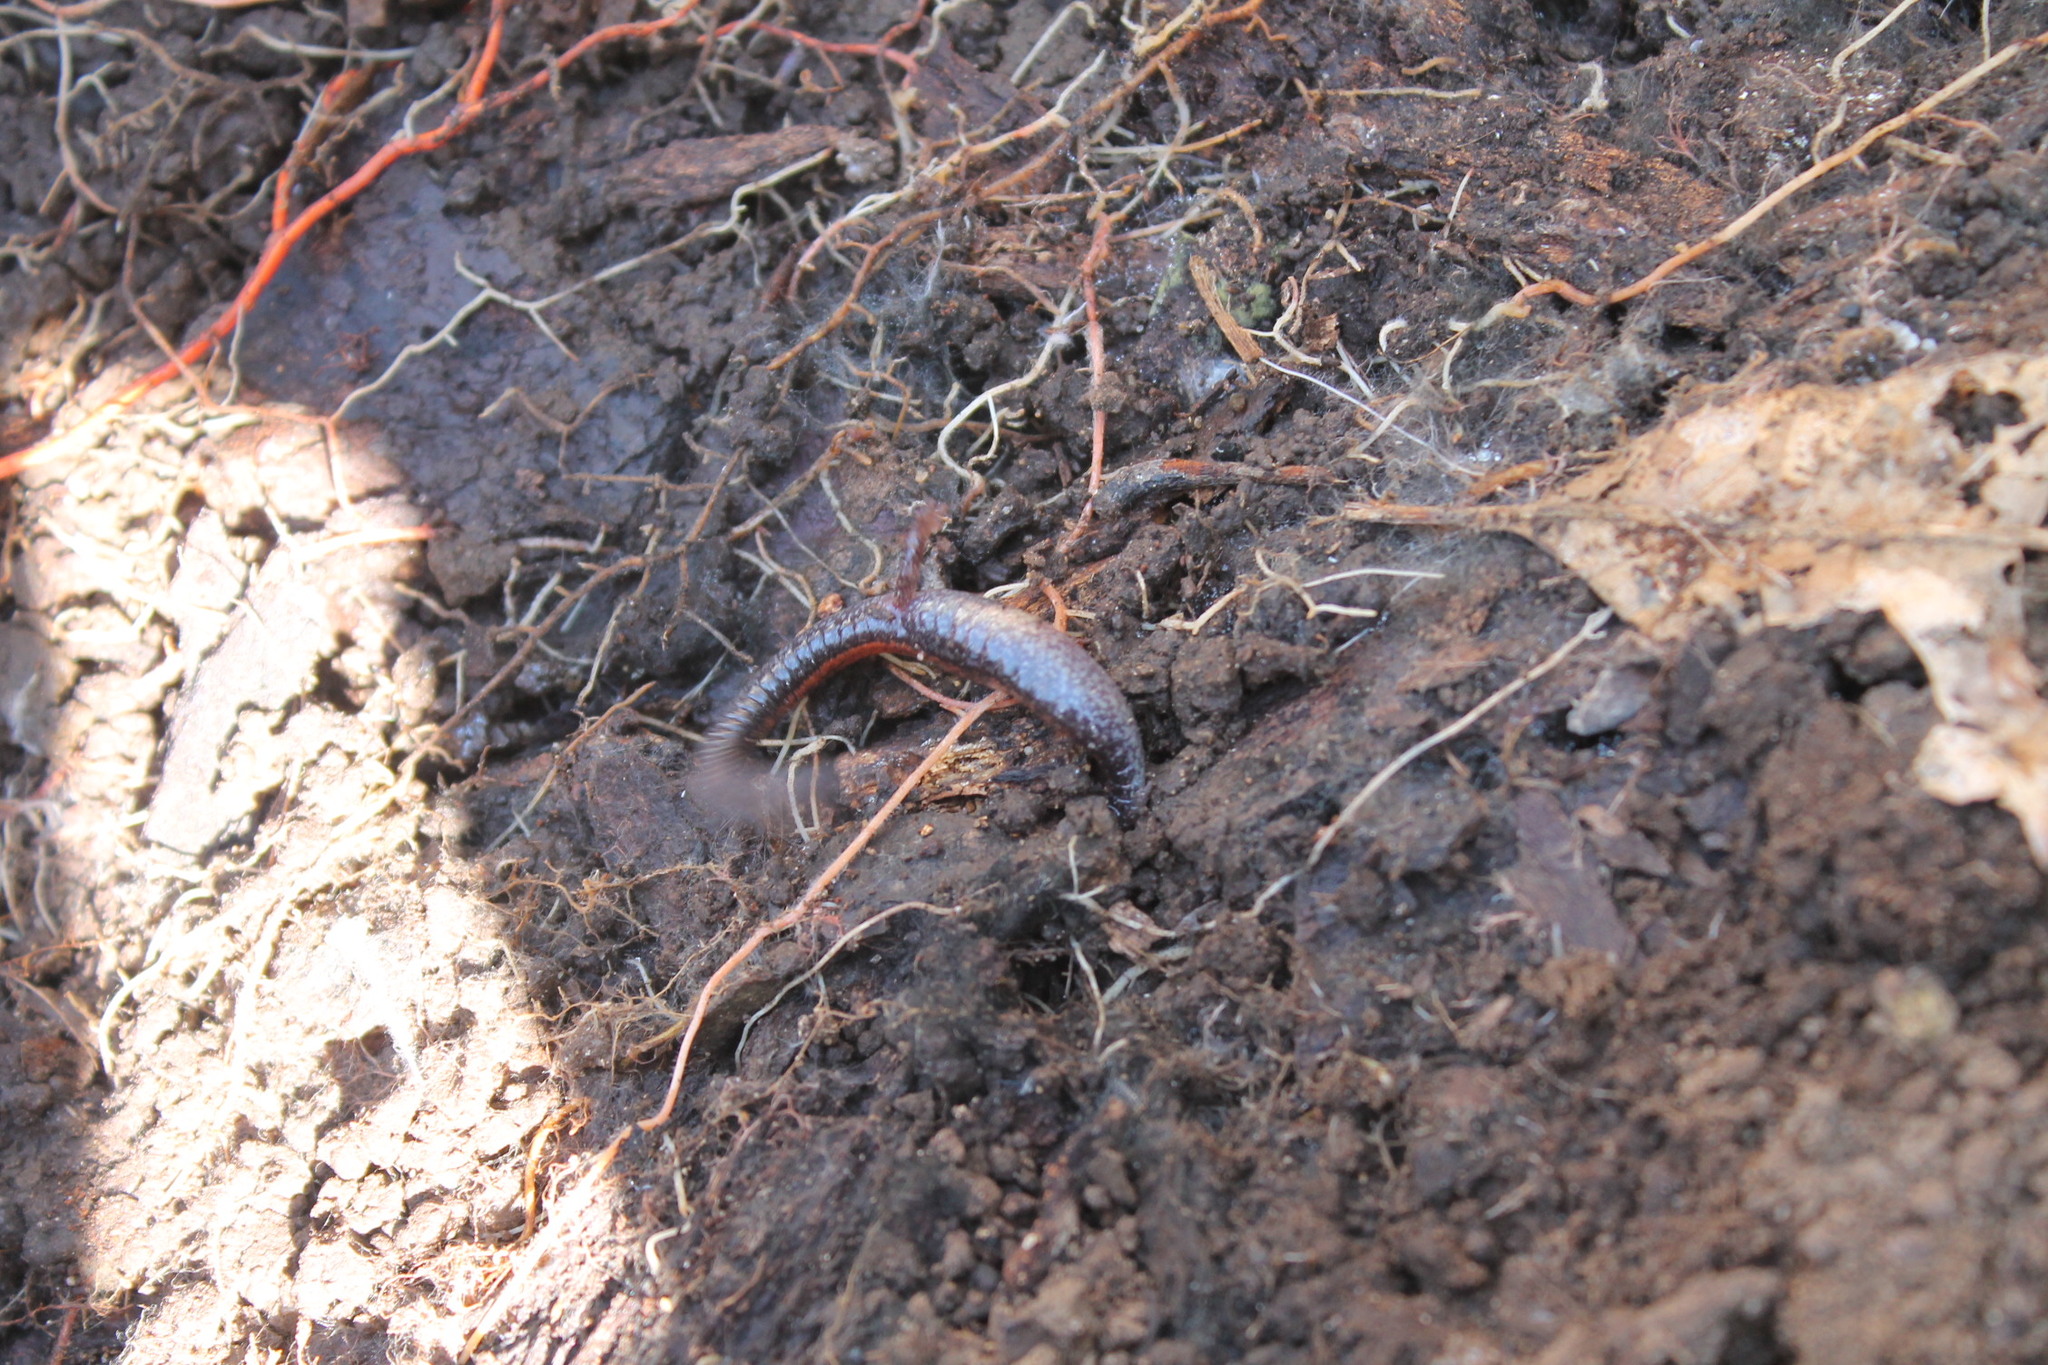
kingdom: Animalia
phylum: Chordata
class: Amphibia
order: Caudata
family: Plethodontidae
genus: Plethodon
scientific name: Plethodon cinereus
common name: Redback salamander
